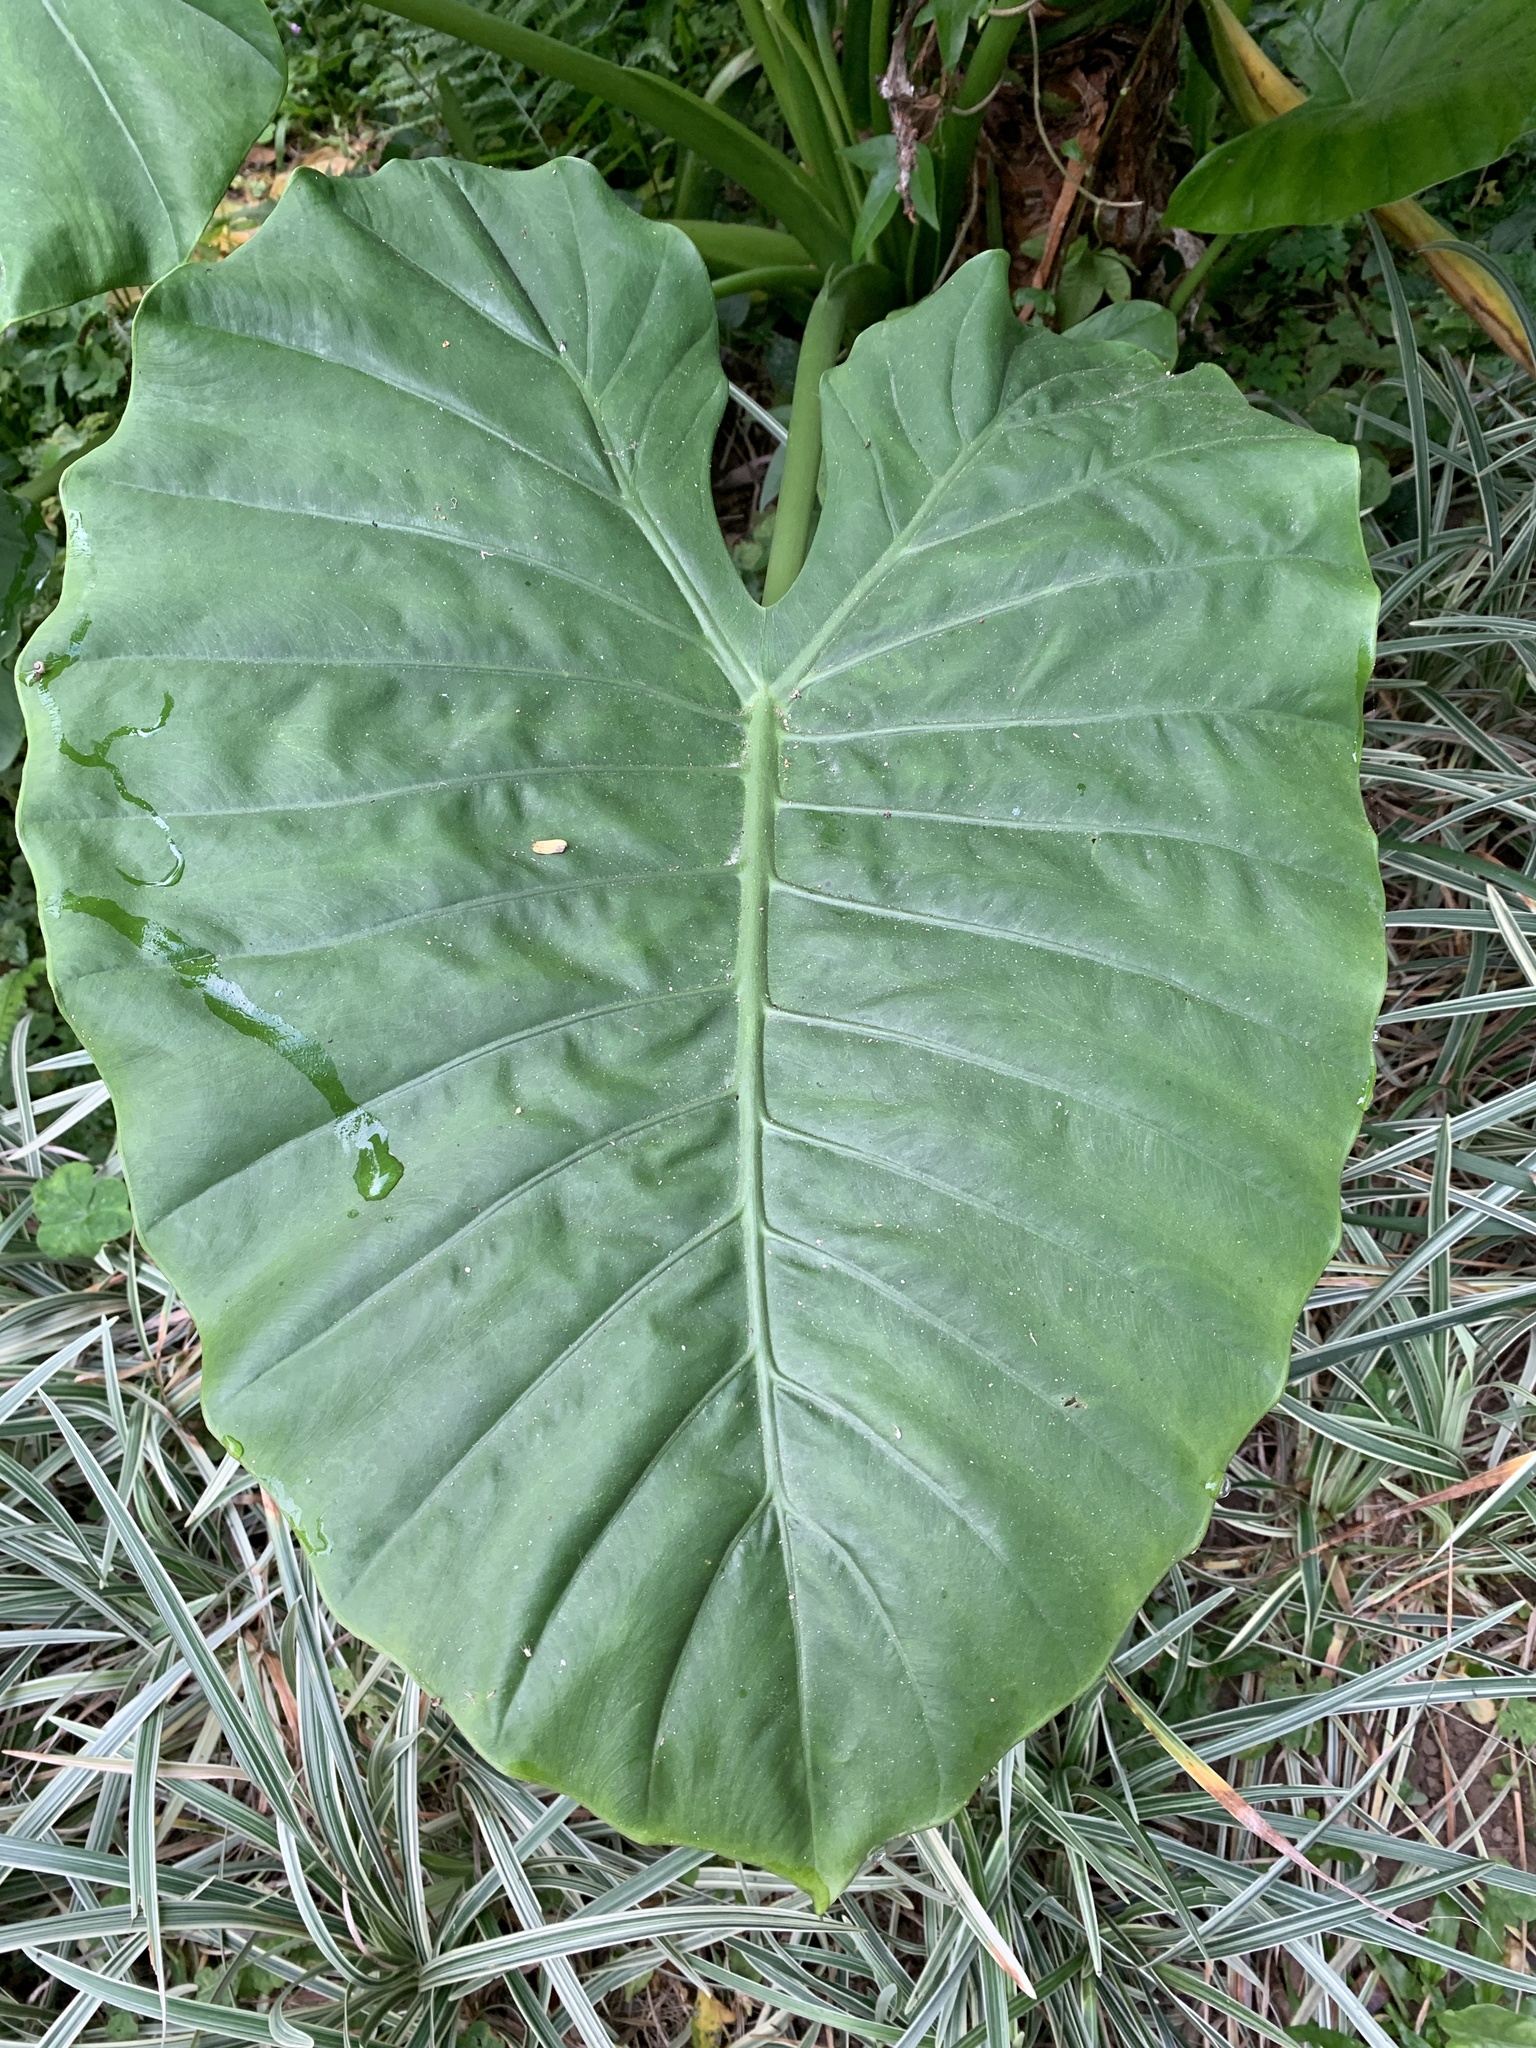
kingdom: Plantae
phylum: Tracheophyta
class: Liliopsida
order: Alismatales
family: Araceae
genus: Alocasia
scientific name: Alocasia odora
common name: Asian taro
